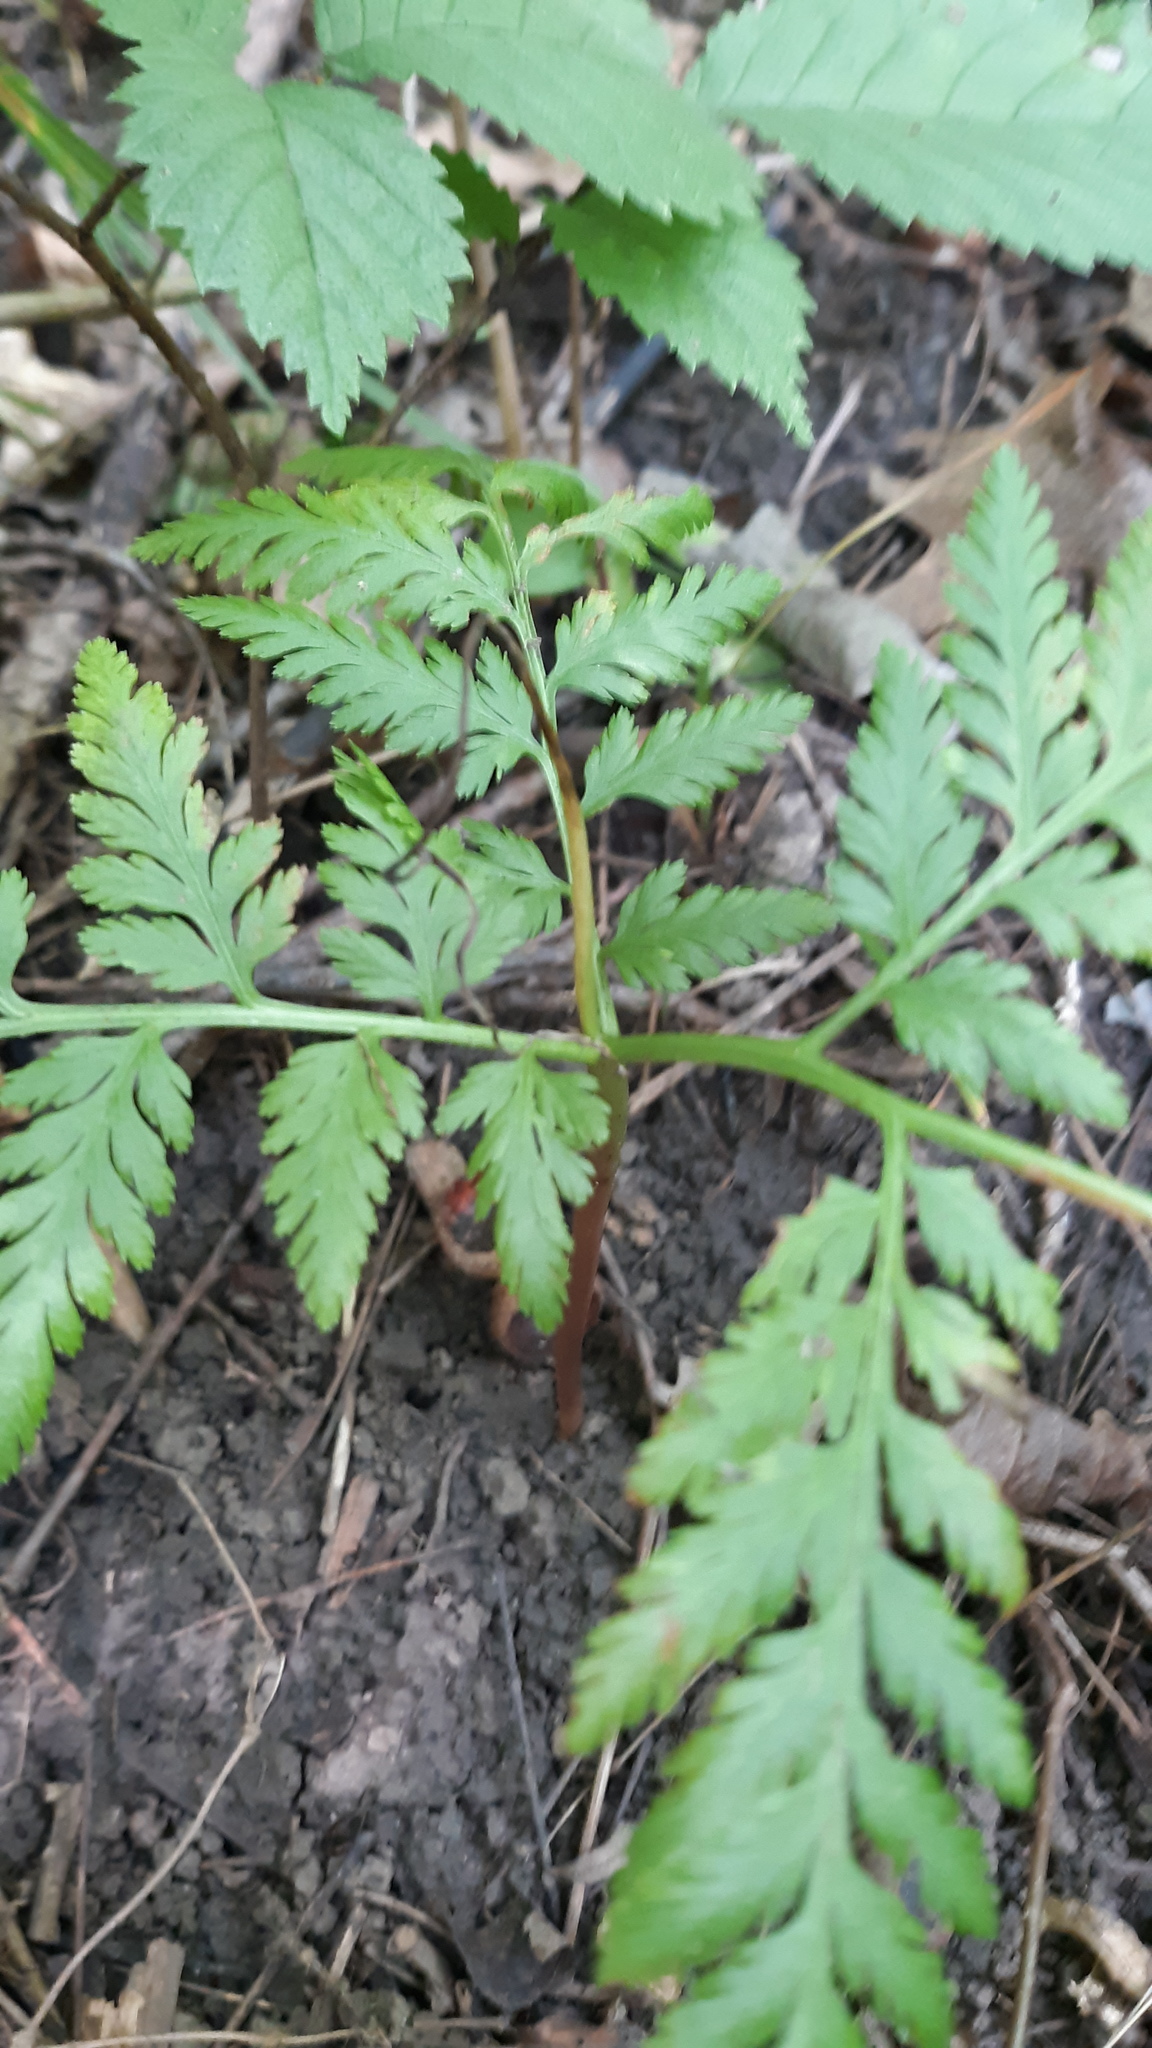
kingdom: Plantae
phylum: Tracheophyta
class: Polypodiopsida
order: Ophioglossales
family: Ophioglossaceae
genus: Botrypus
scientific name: Botrypus virginianus
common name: Common grapefern
